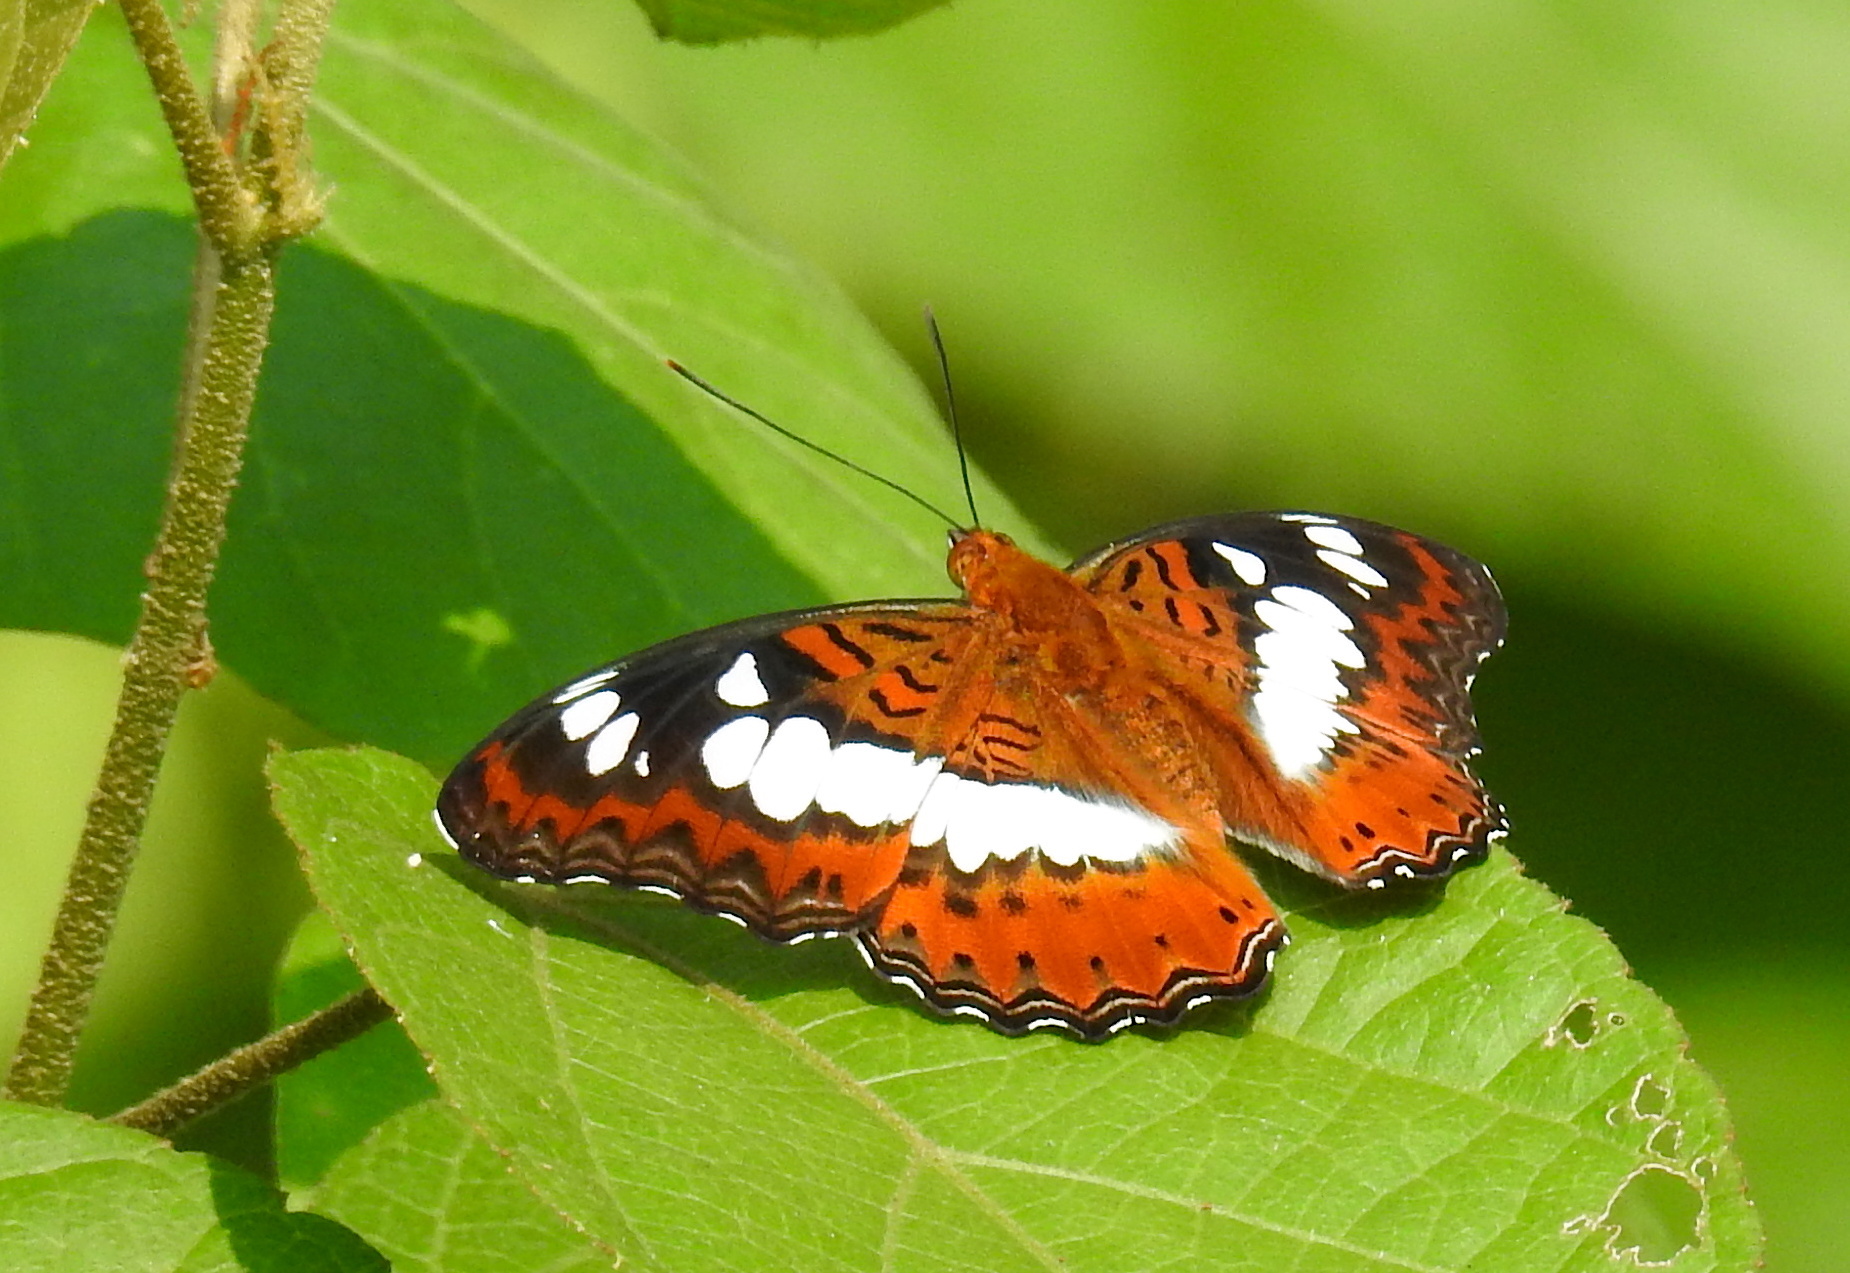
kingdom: Animalia
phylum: Arthropoda
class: Insecta
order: Lepidoptera
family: Nymphalidae
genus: Limenitis
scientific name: Limenitis Moduza procris
